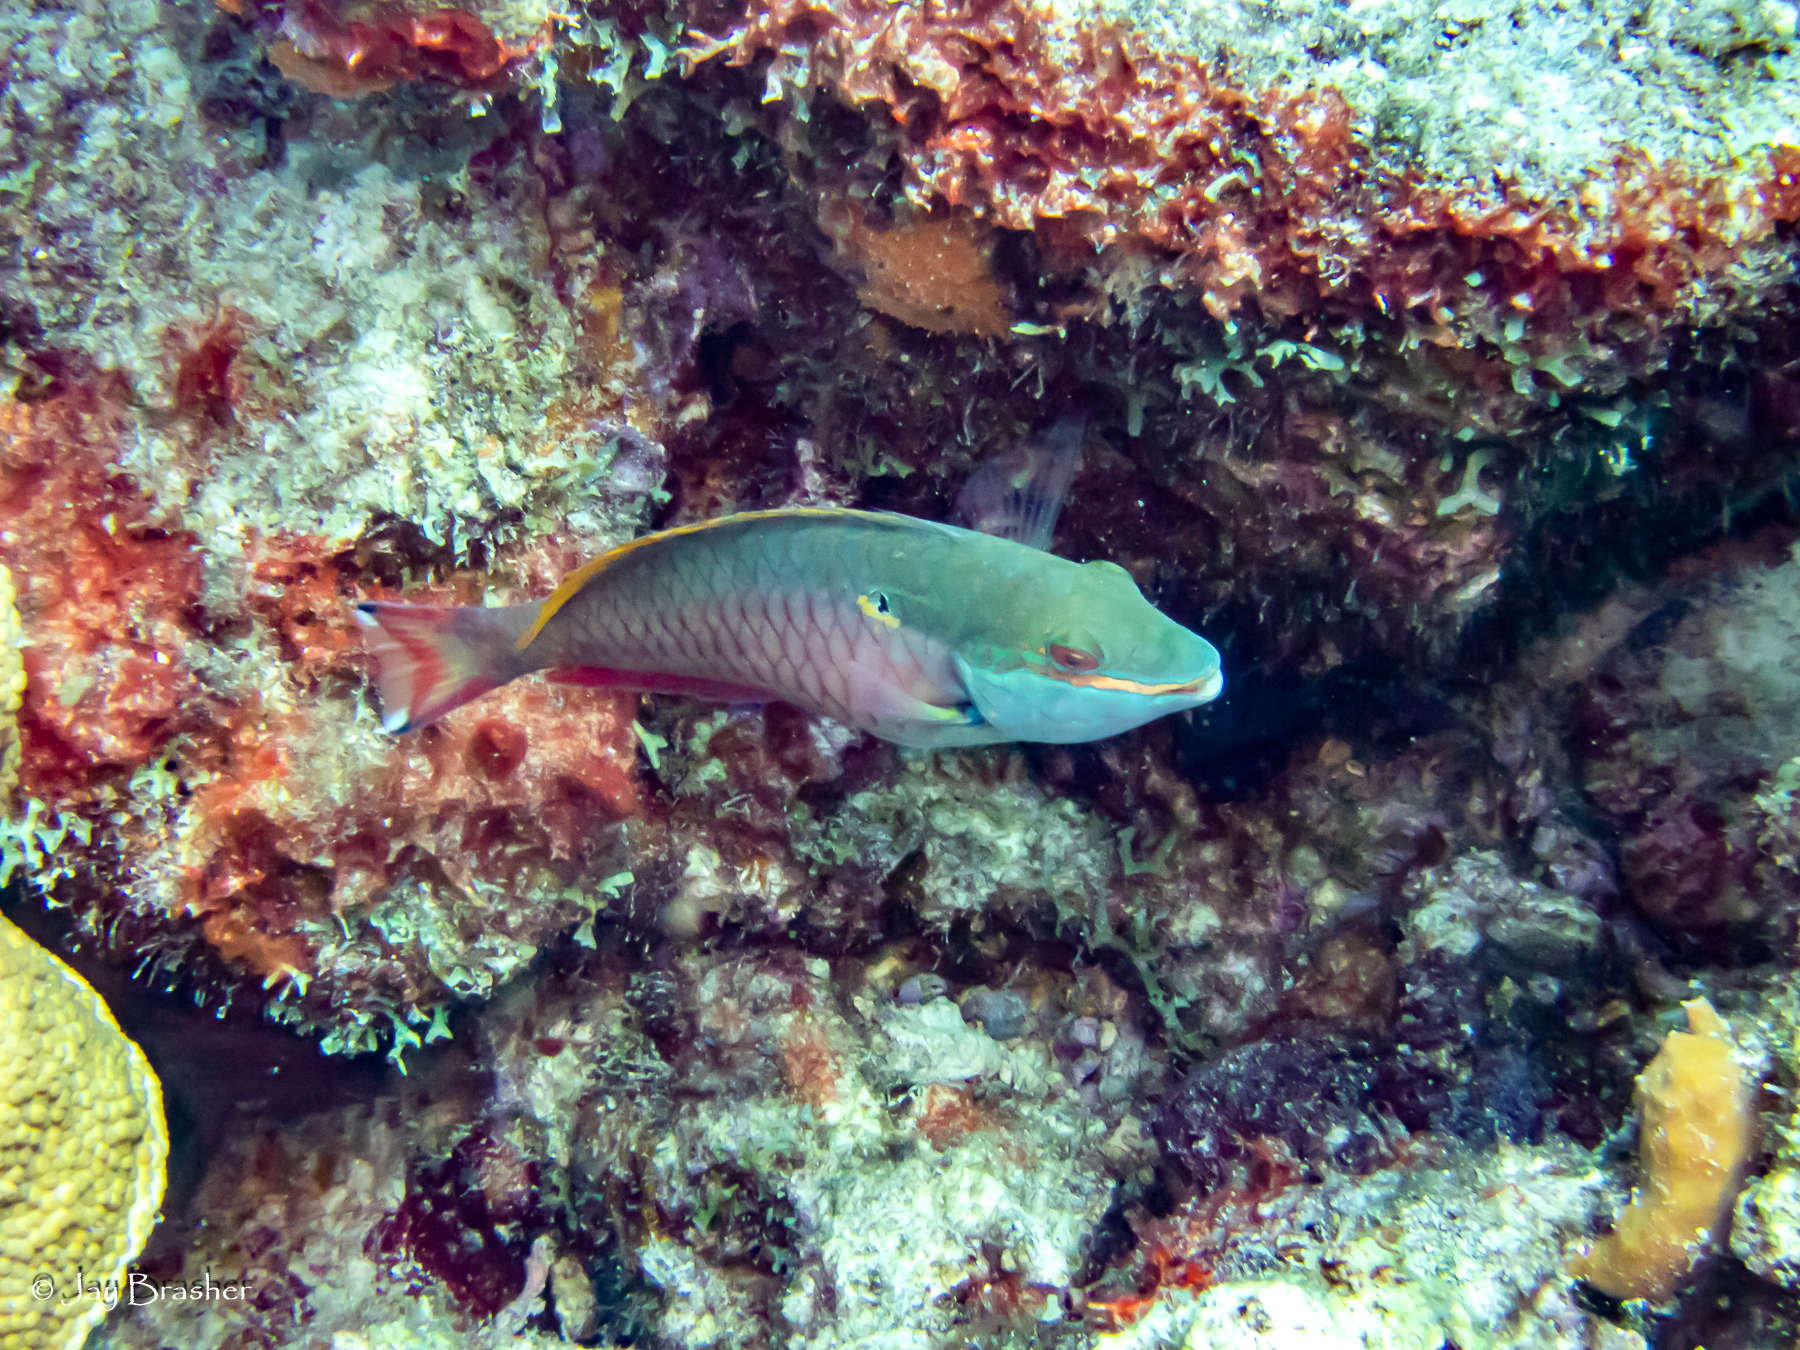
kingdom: Animalia
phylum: Chordata
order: Perciformes
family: Scaridae
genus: Sparisoma
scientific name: Sparisoma aurofrenatum
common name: Redband parrotfish
